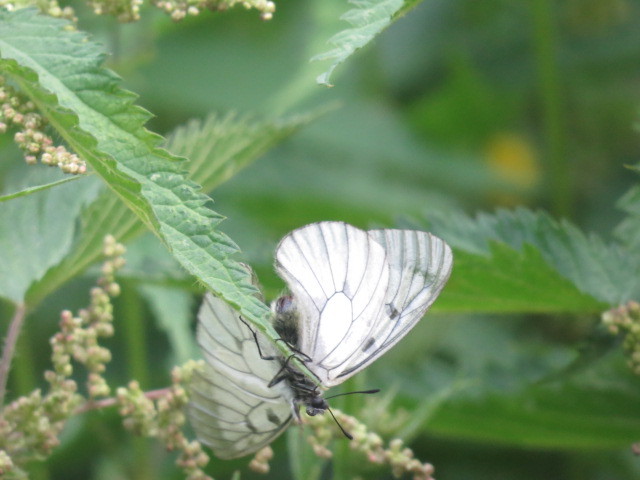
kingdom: Animalia
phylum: Arthropoda
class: Insecta
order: Lepidoptera
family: Papilionidae
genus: Parnassius
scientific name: Parnassius mnemosyne
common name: Clouded apollo
